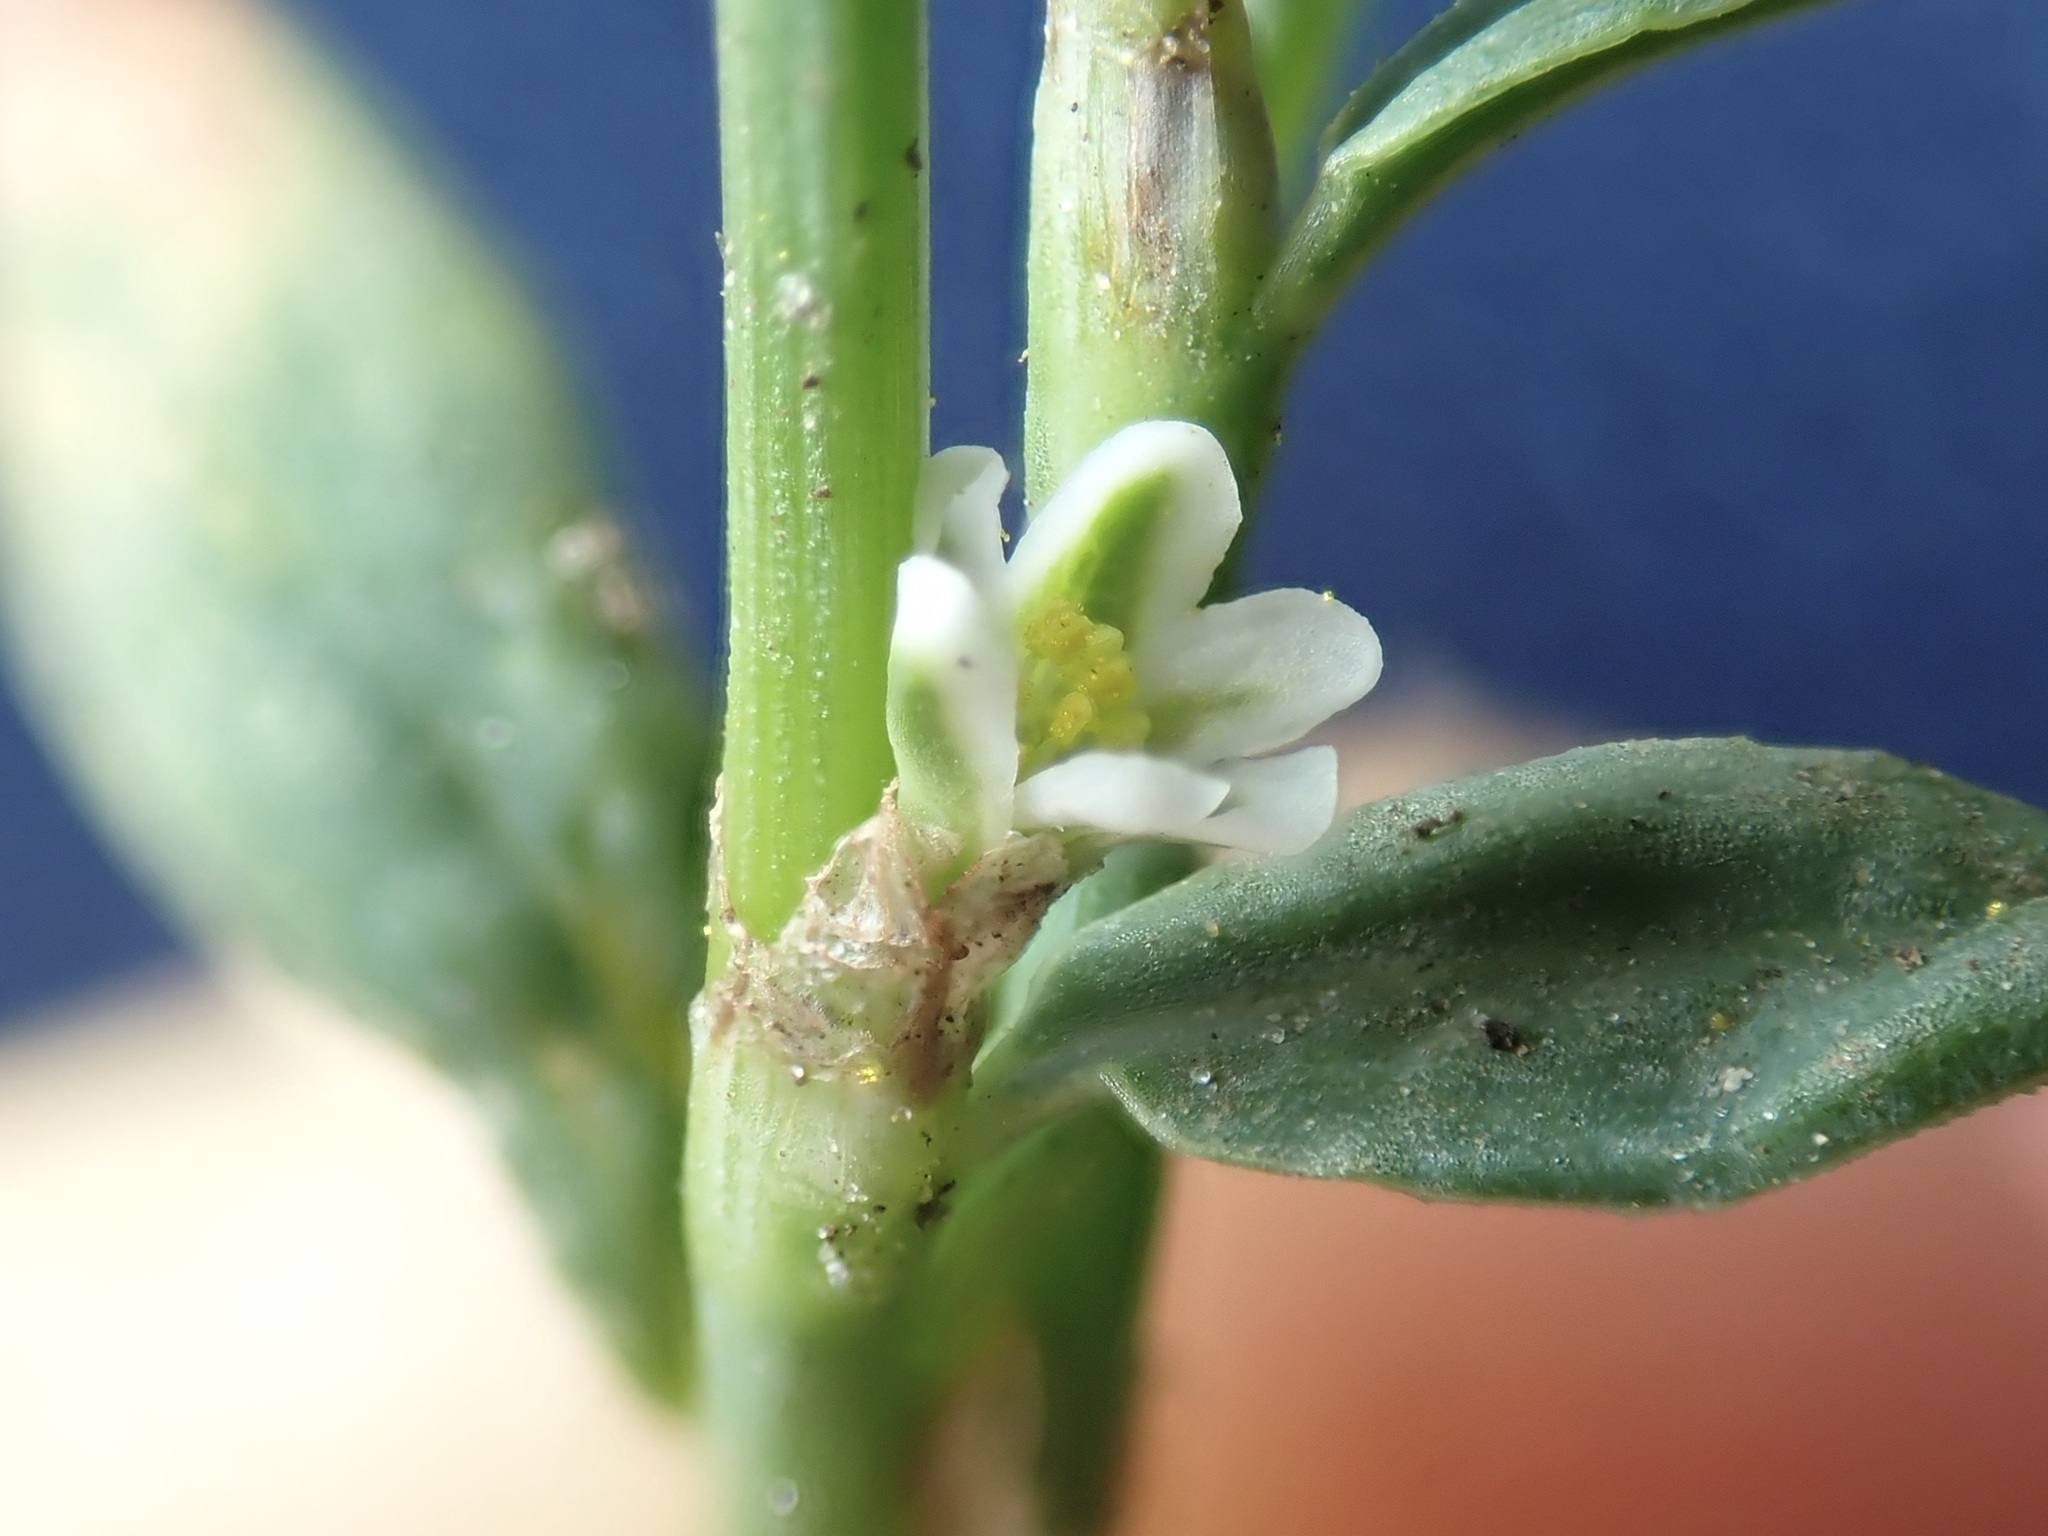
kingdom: Plantae
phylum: Tracheophyta
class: Magnoliopsida
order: Caryophyllales
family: Polygonaceae
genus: Polygonum
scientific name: Polygonum aviculare
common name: Prostrate knotweed
